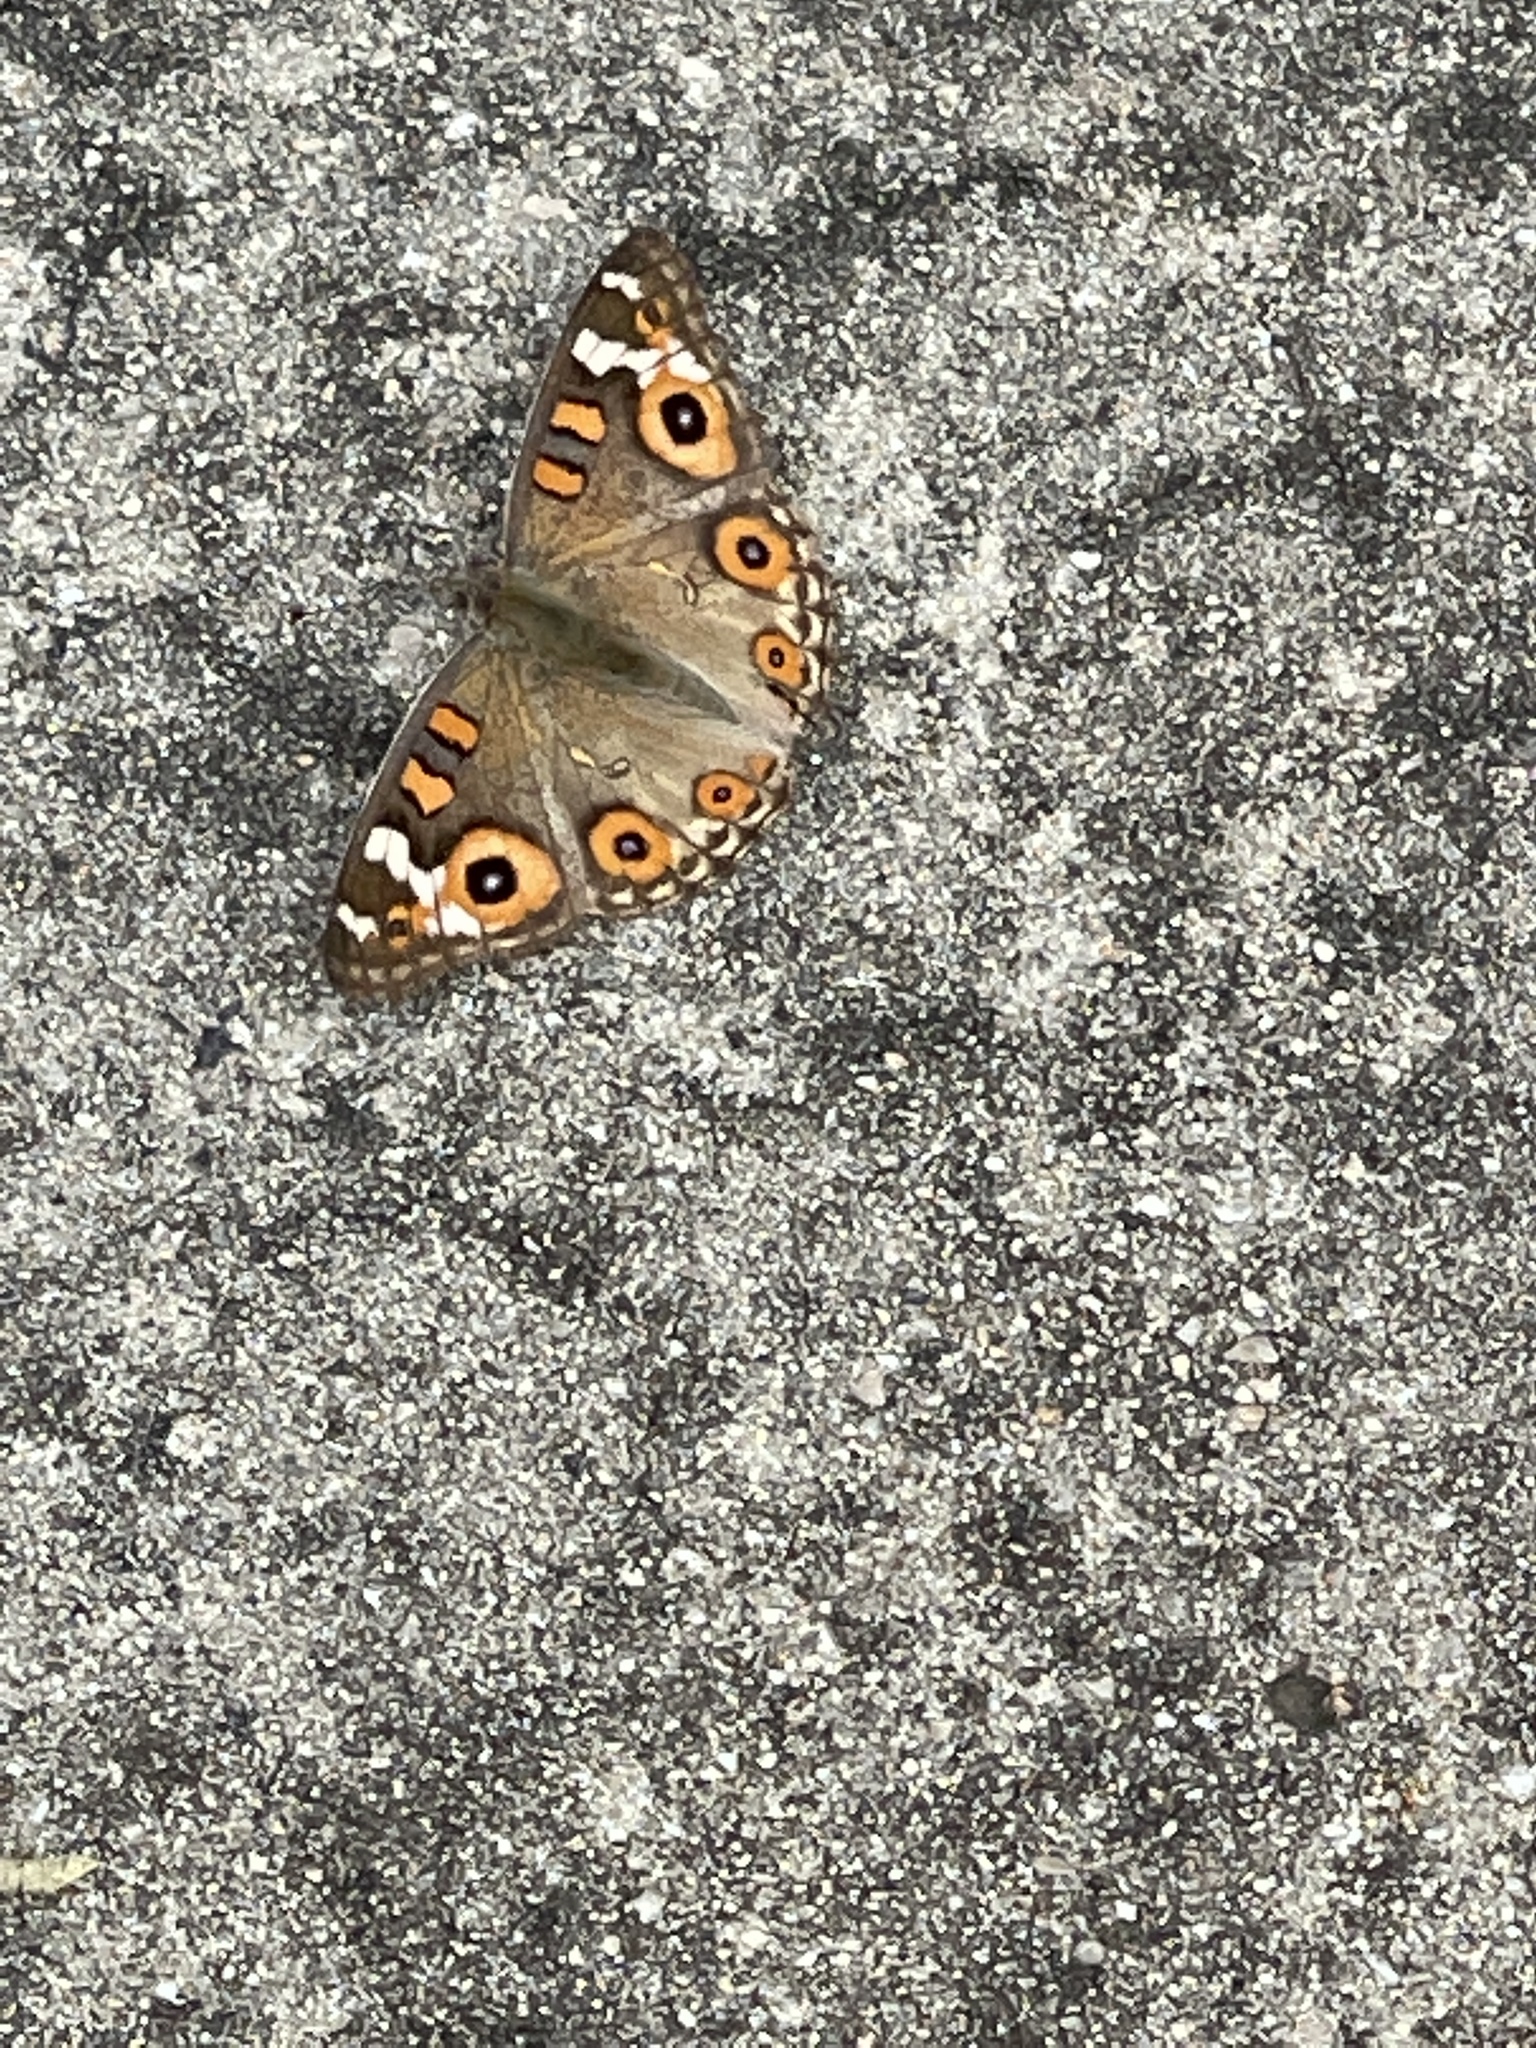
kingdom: Animalia
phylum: Arthropoda
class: Insecta
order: Lepidoptera
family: Nymphalidae
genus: Junonia
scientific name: Junonia villida
